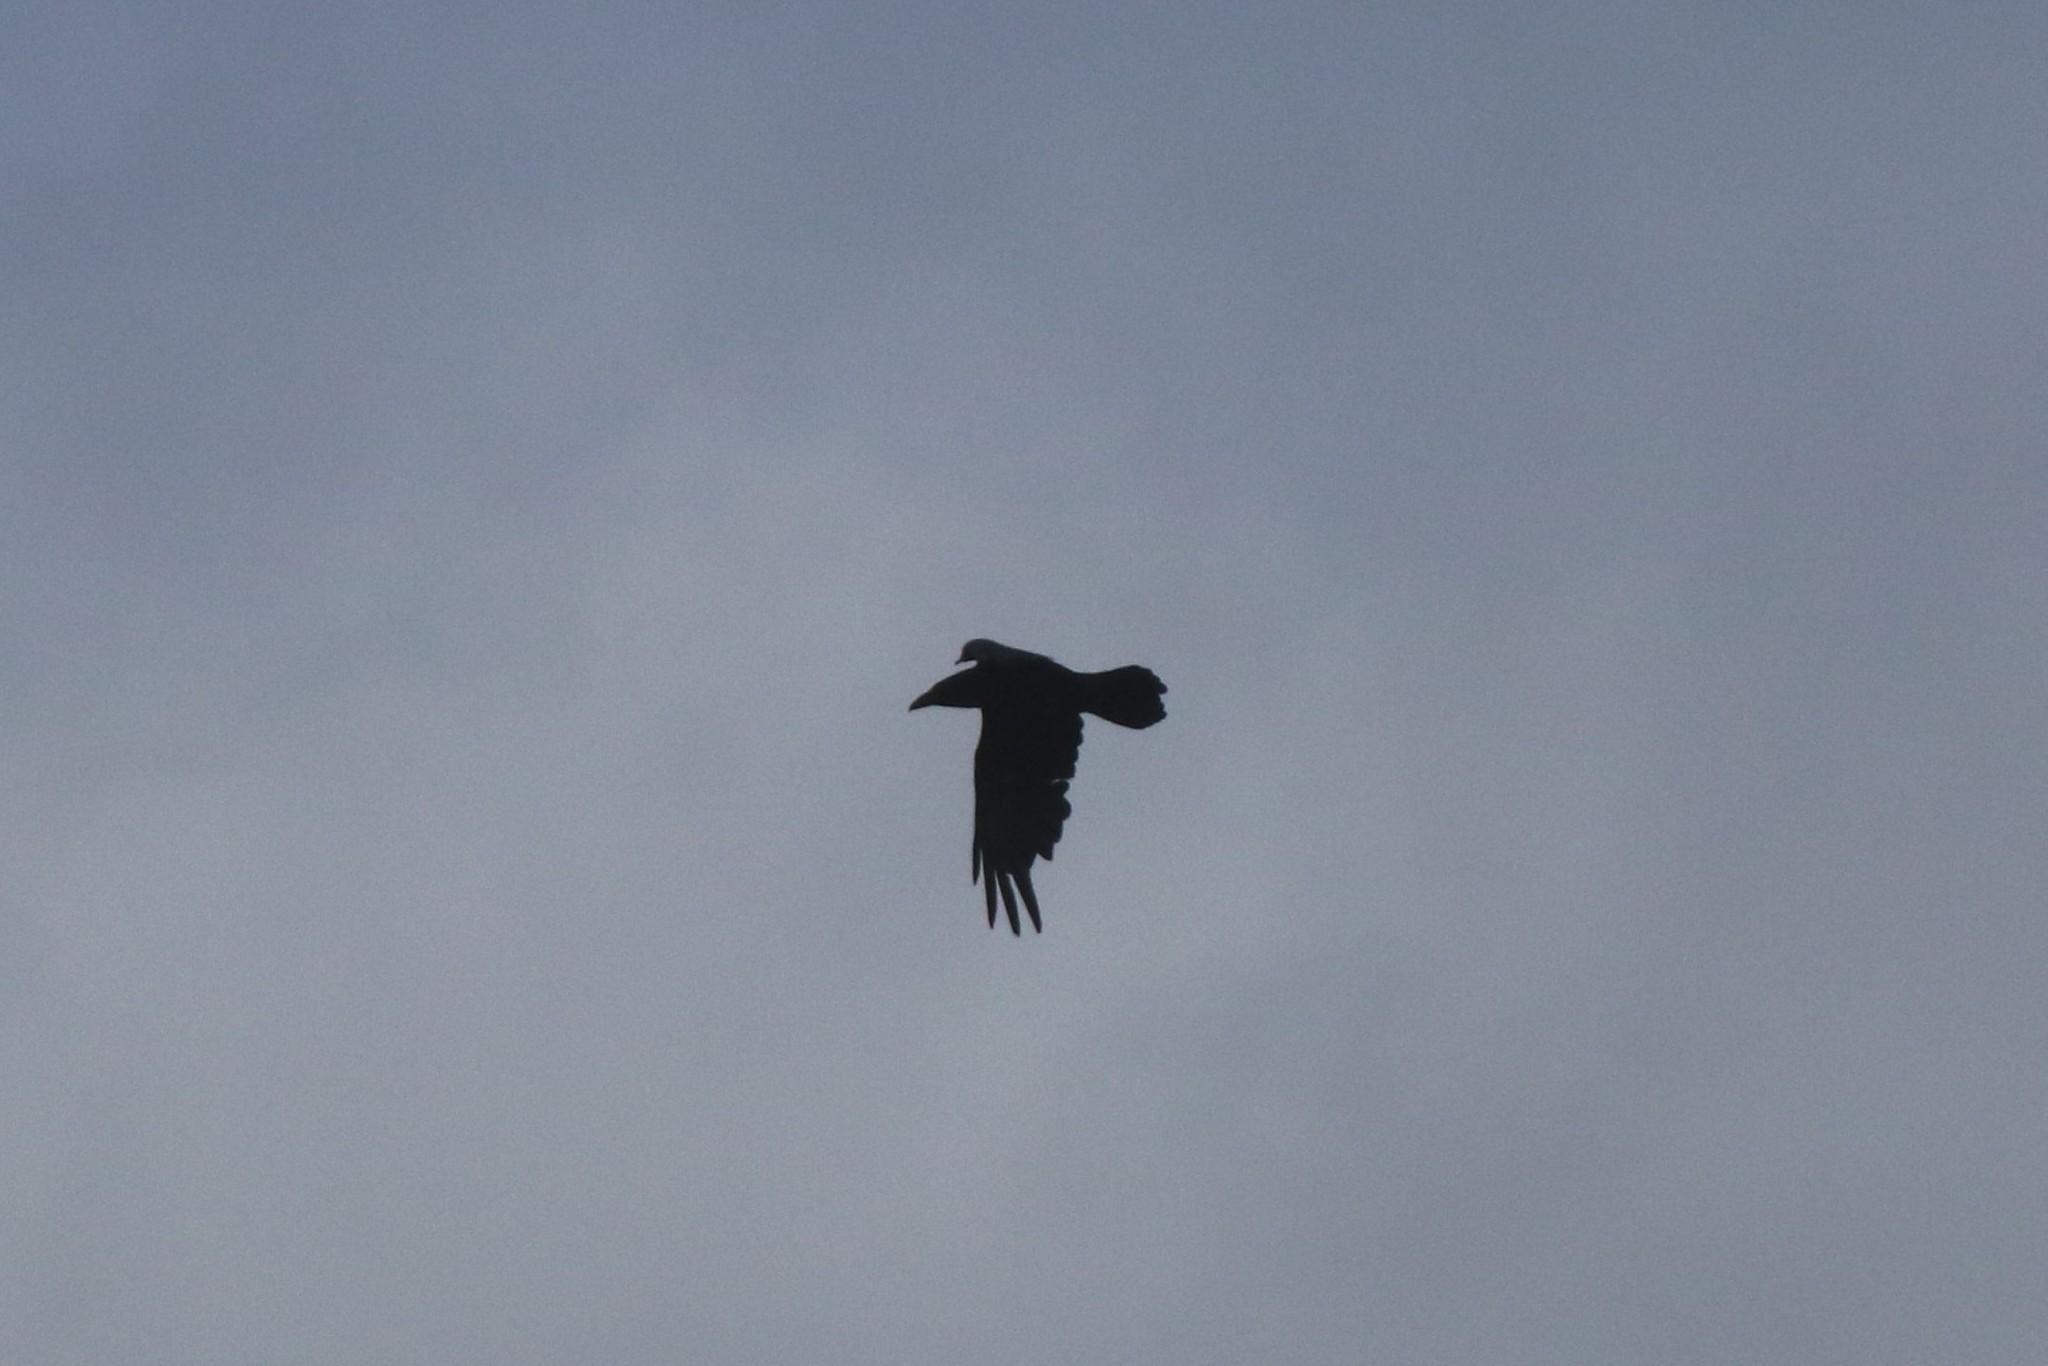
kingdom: Animalia
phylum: Chordata
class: Aves
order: Passeriformes
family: Corvidae
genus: Corvus
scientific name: Corvus corax
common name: Common raven
